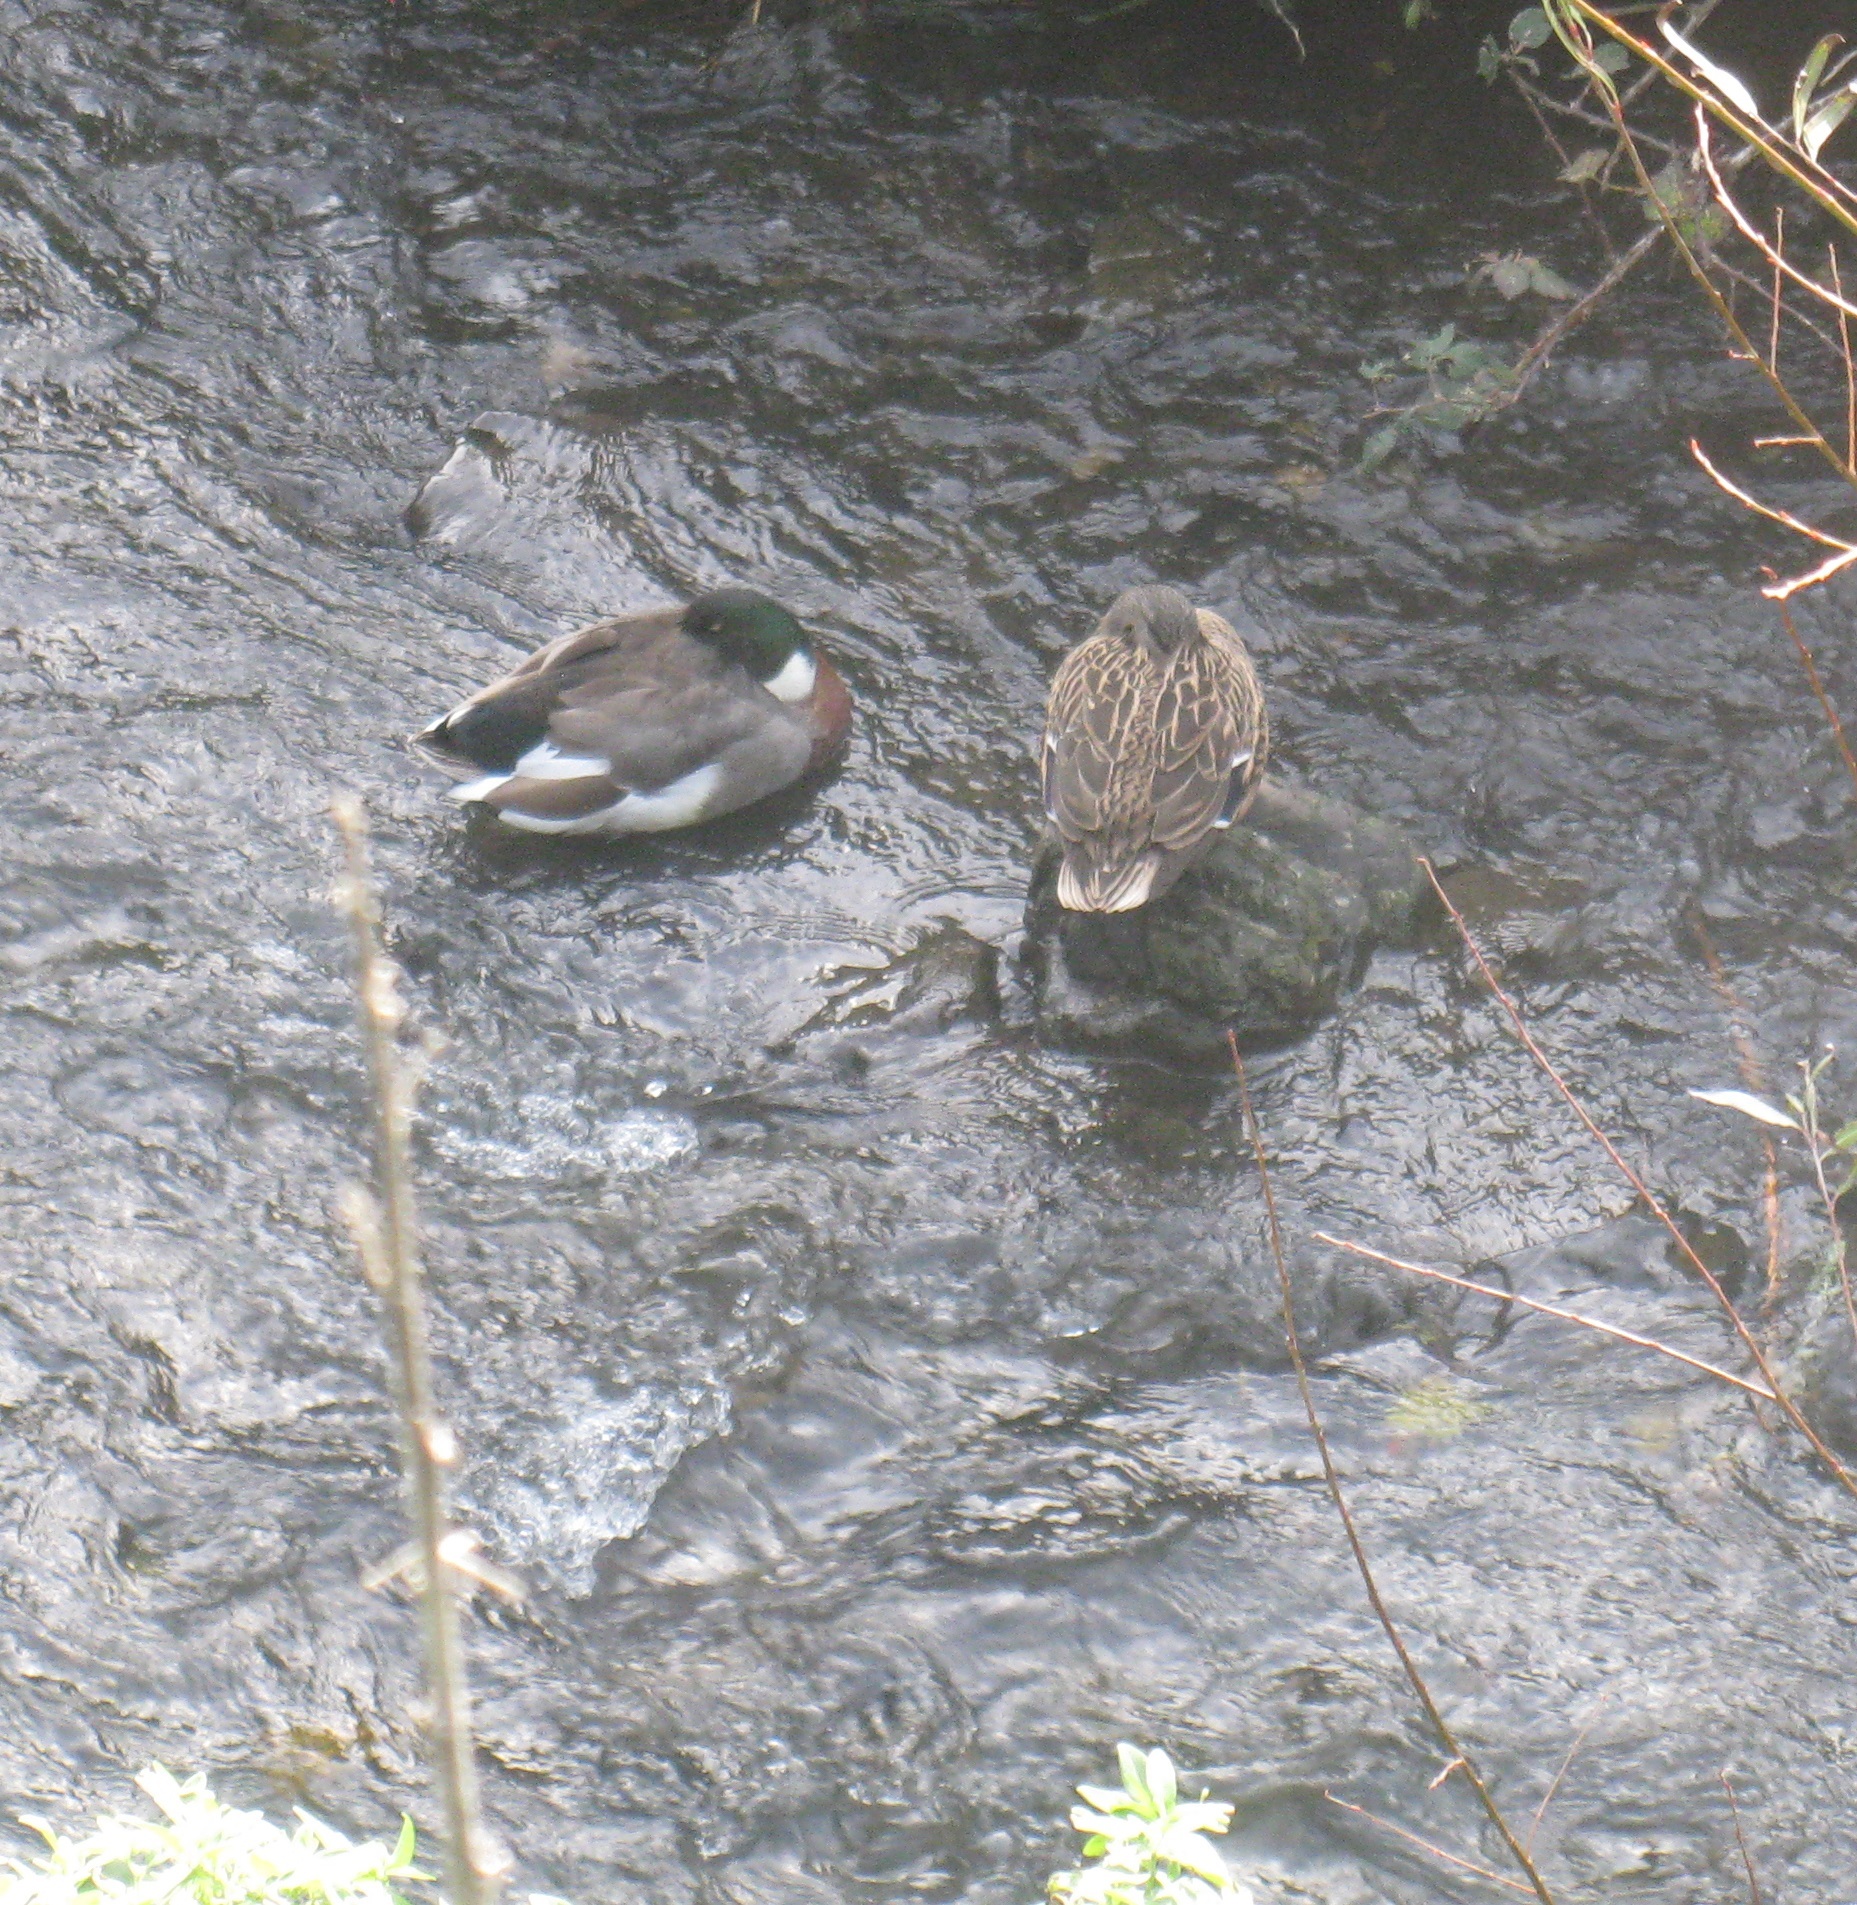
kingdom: Animalia
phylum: Chordata
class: Aves
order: Anseriformes
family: Anatidae
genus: Anas
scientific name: Anas platyrhynchos
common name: Mallard
